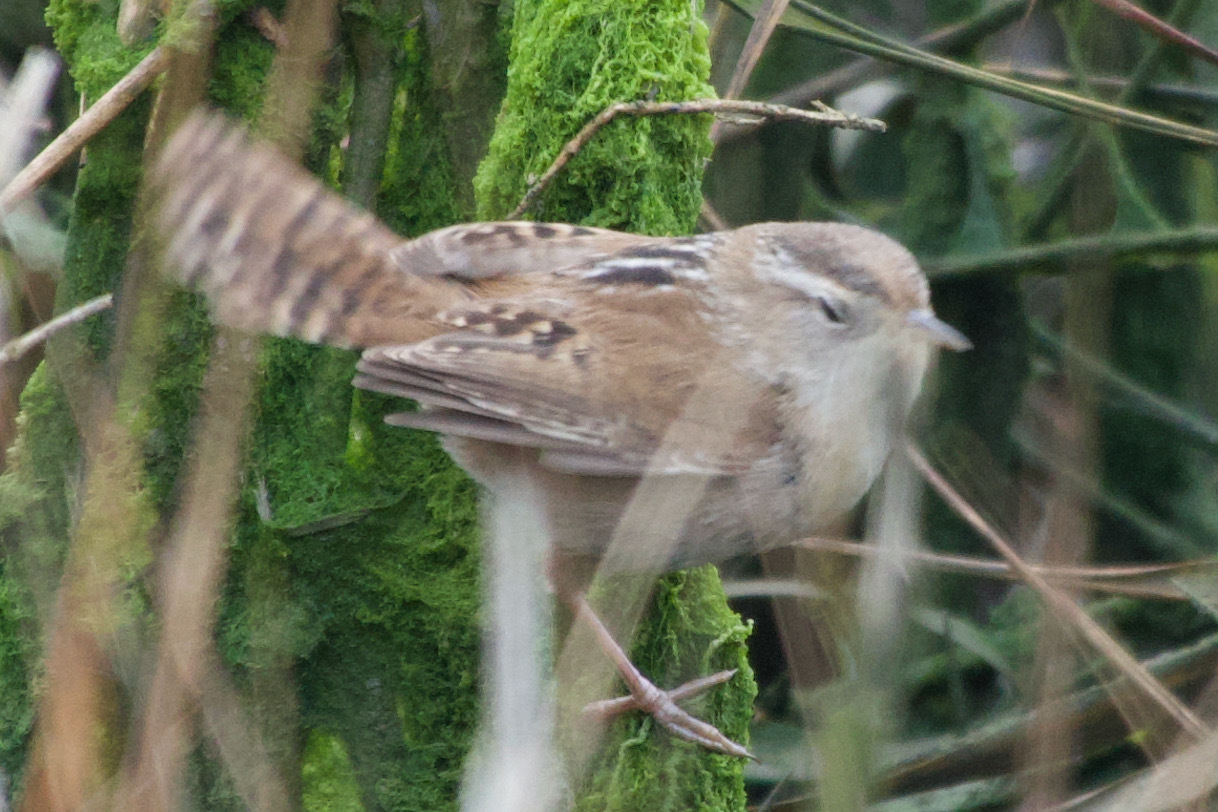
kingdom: Animalia
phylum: Chordata
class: Aves
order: Passeriformes
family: Troglodytidae
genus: Cistothorus
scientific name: Cistothorus palustris
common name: Marsh wren
